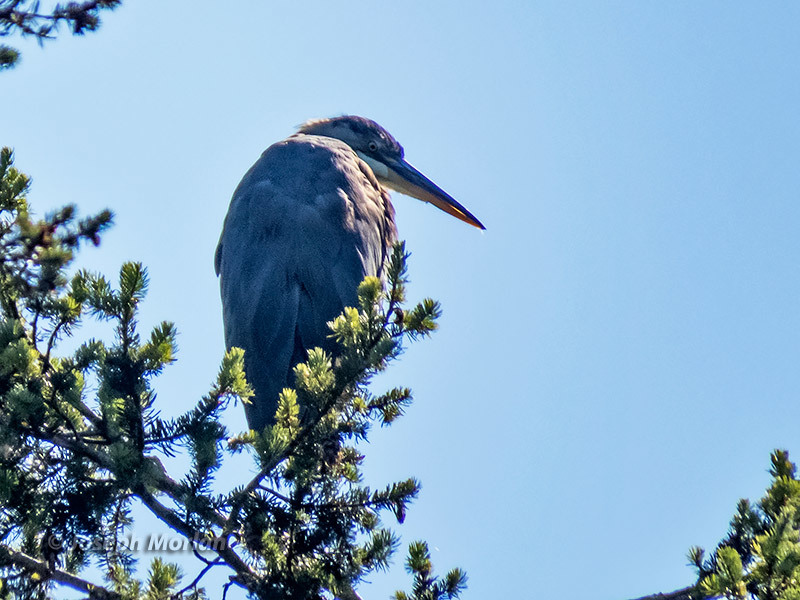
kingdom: Animalia
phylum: Chordata
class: Aves
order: Pelecaniformes
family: Ardeidae
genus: Ardea
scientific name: Ardea herodias
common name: Great blue heron
